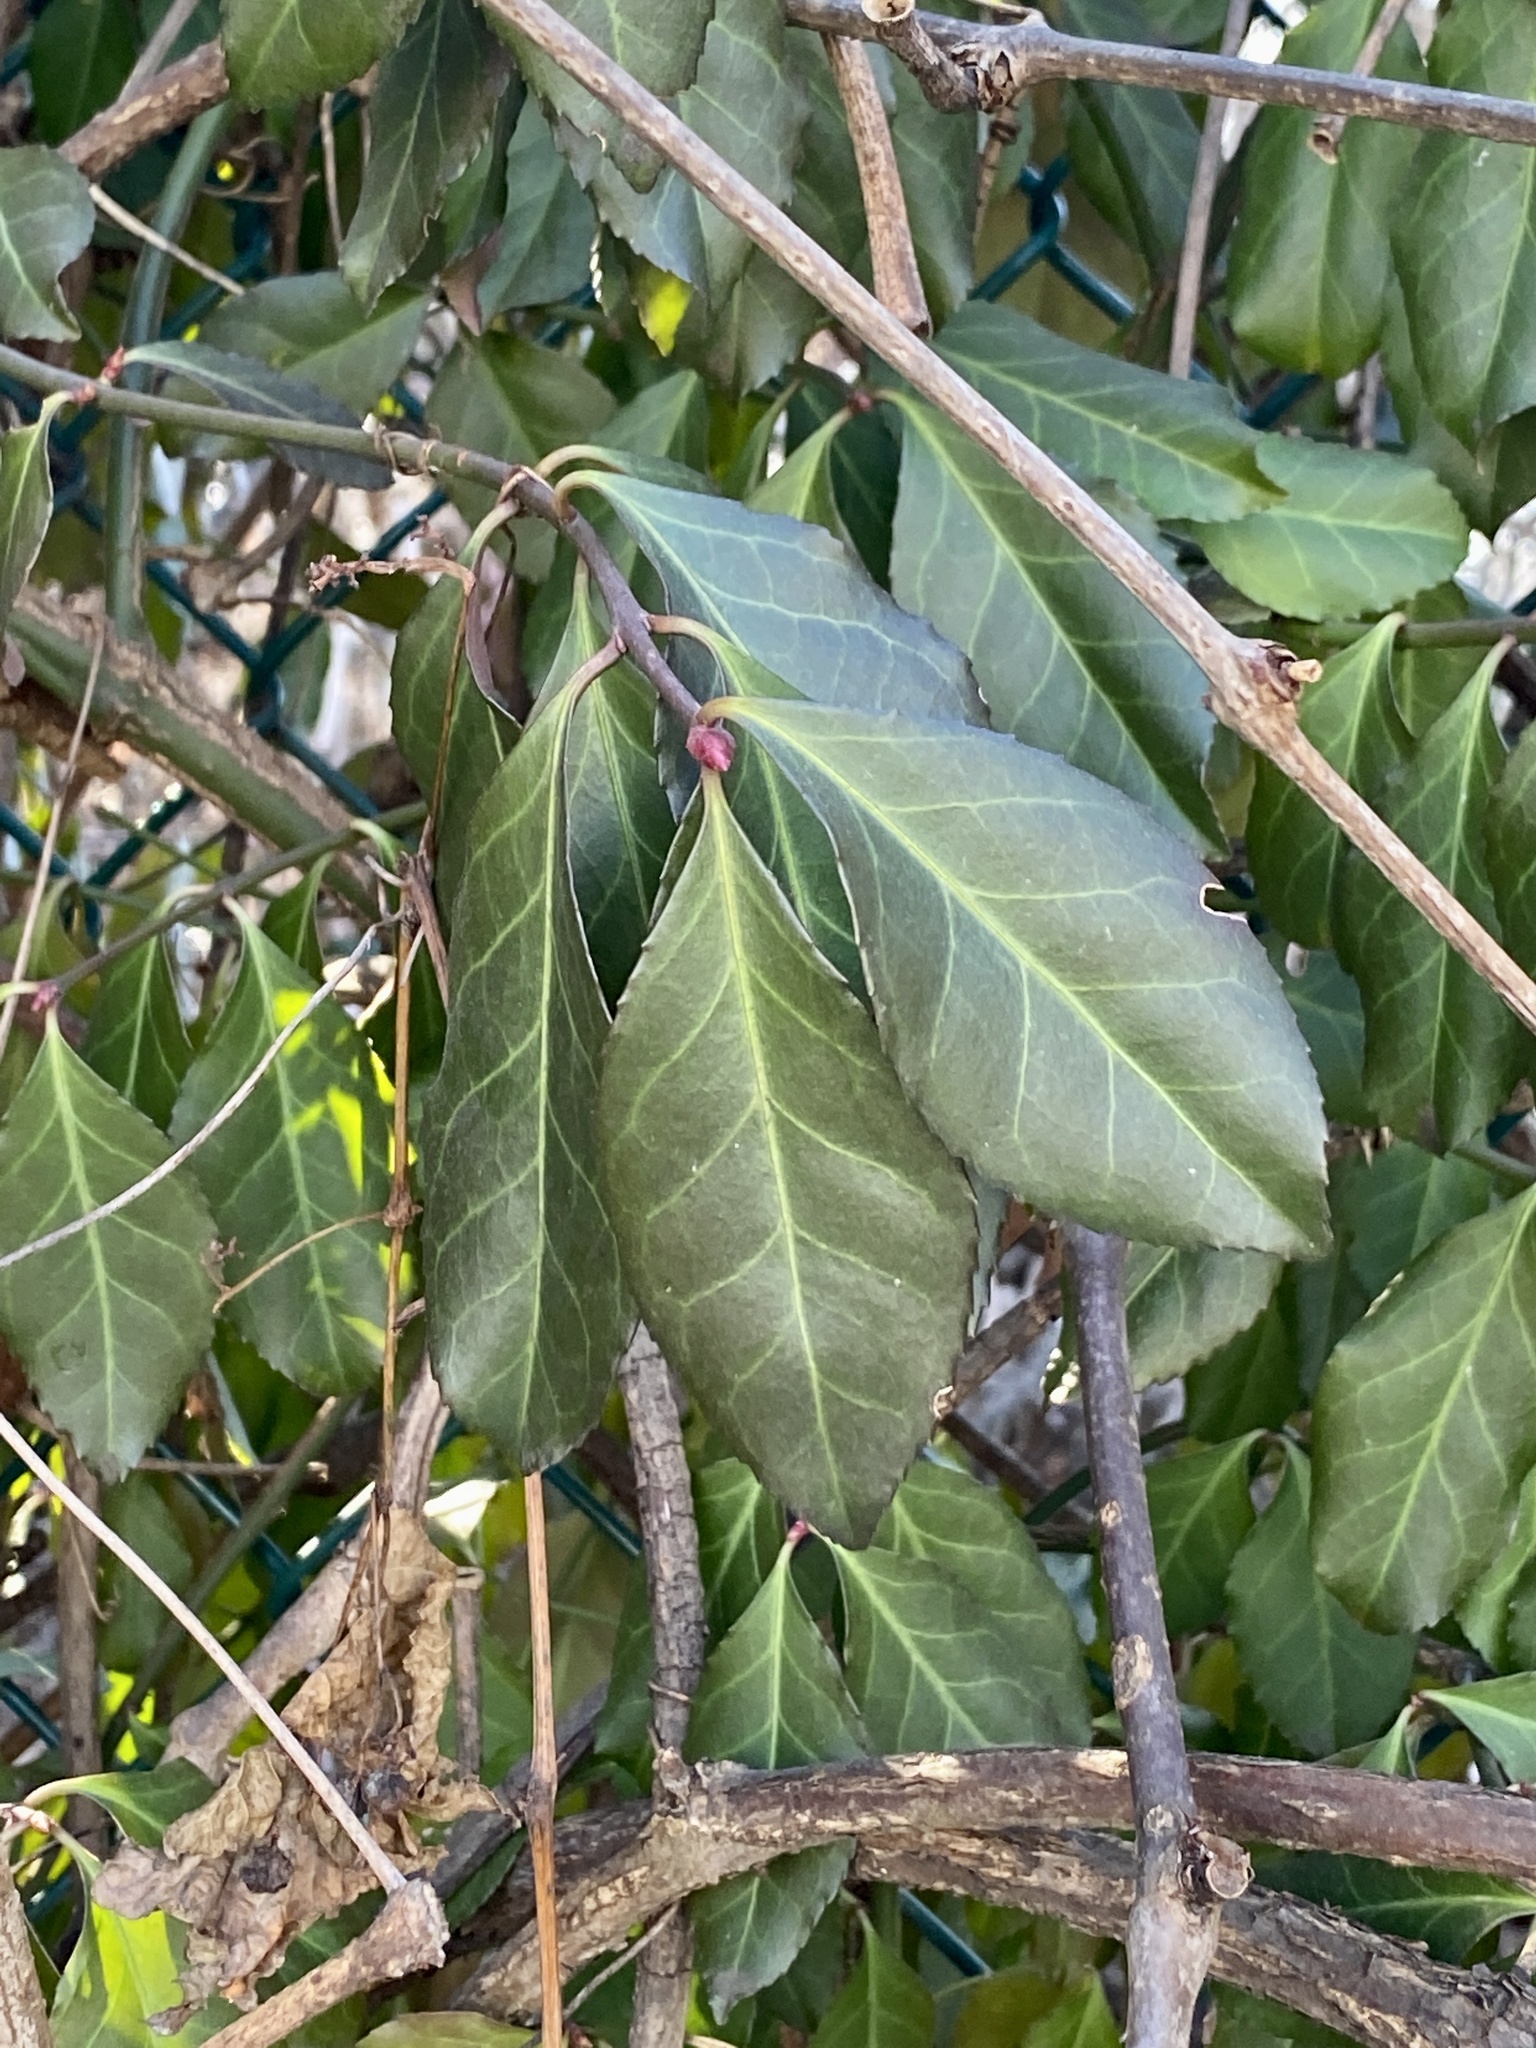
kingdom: Plantae
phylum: Tracheophyta
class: Magnoliopsida
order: Celastrales
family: Celastraceae
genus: Euonymus
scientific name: Euonymus fortunei
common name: Climbing euonymus
